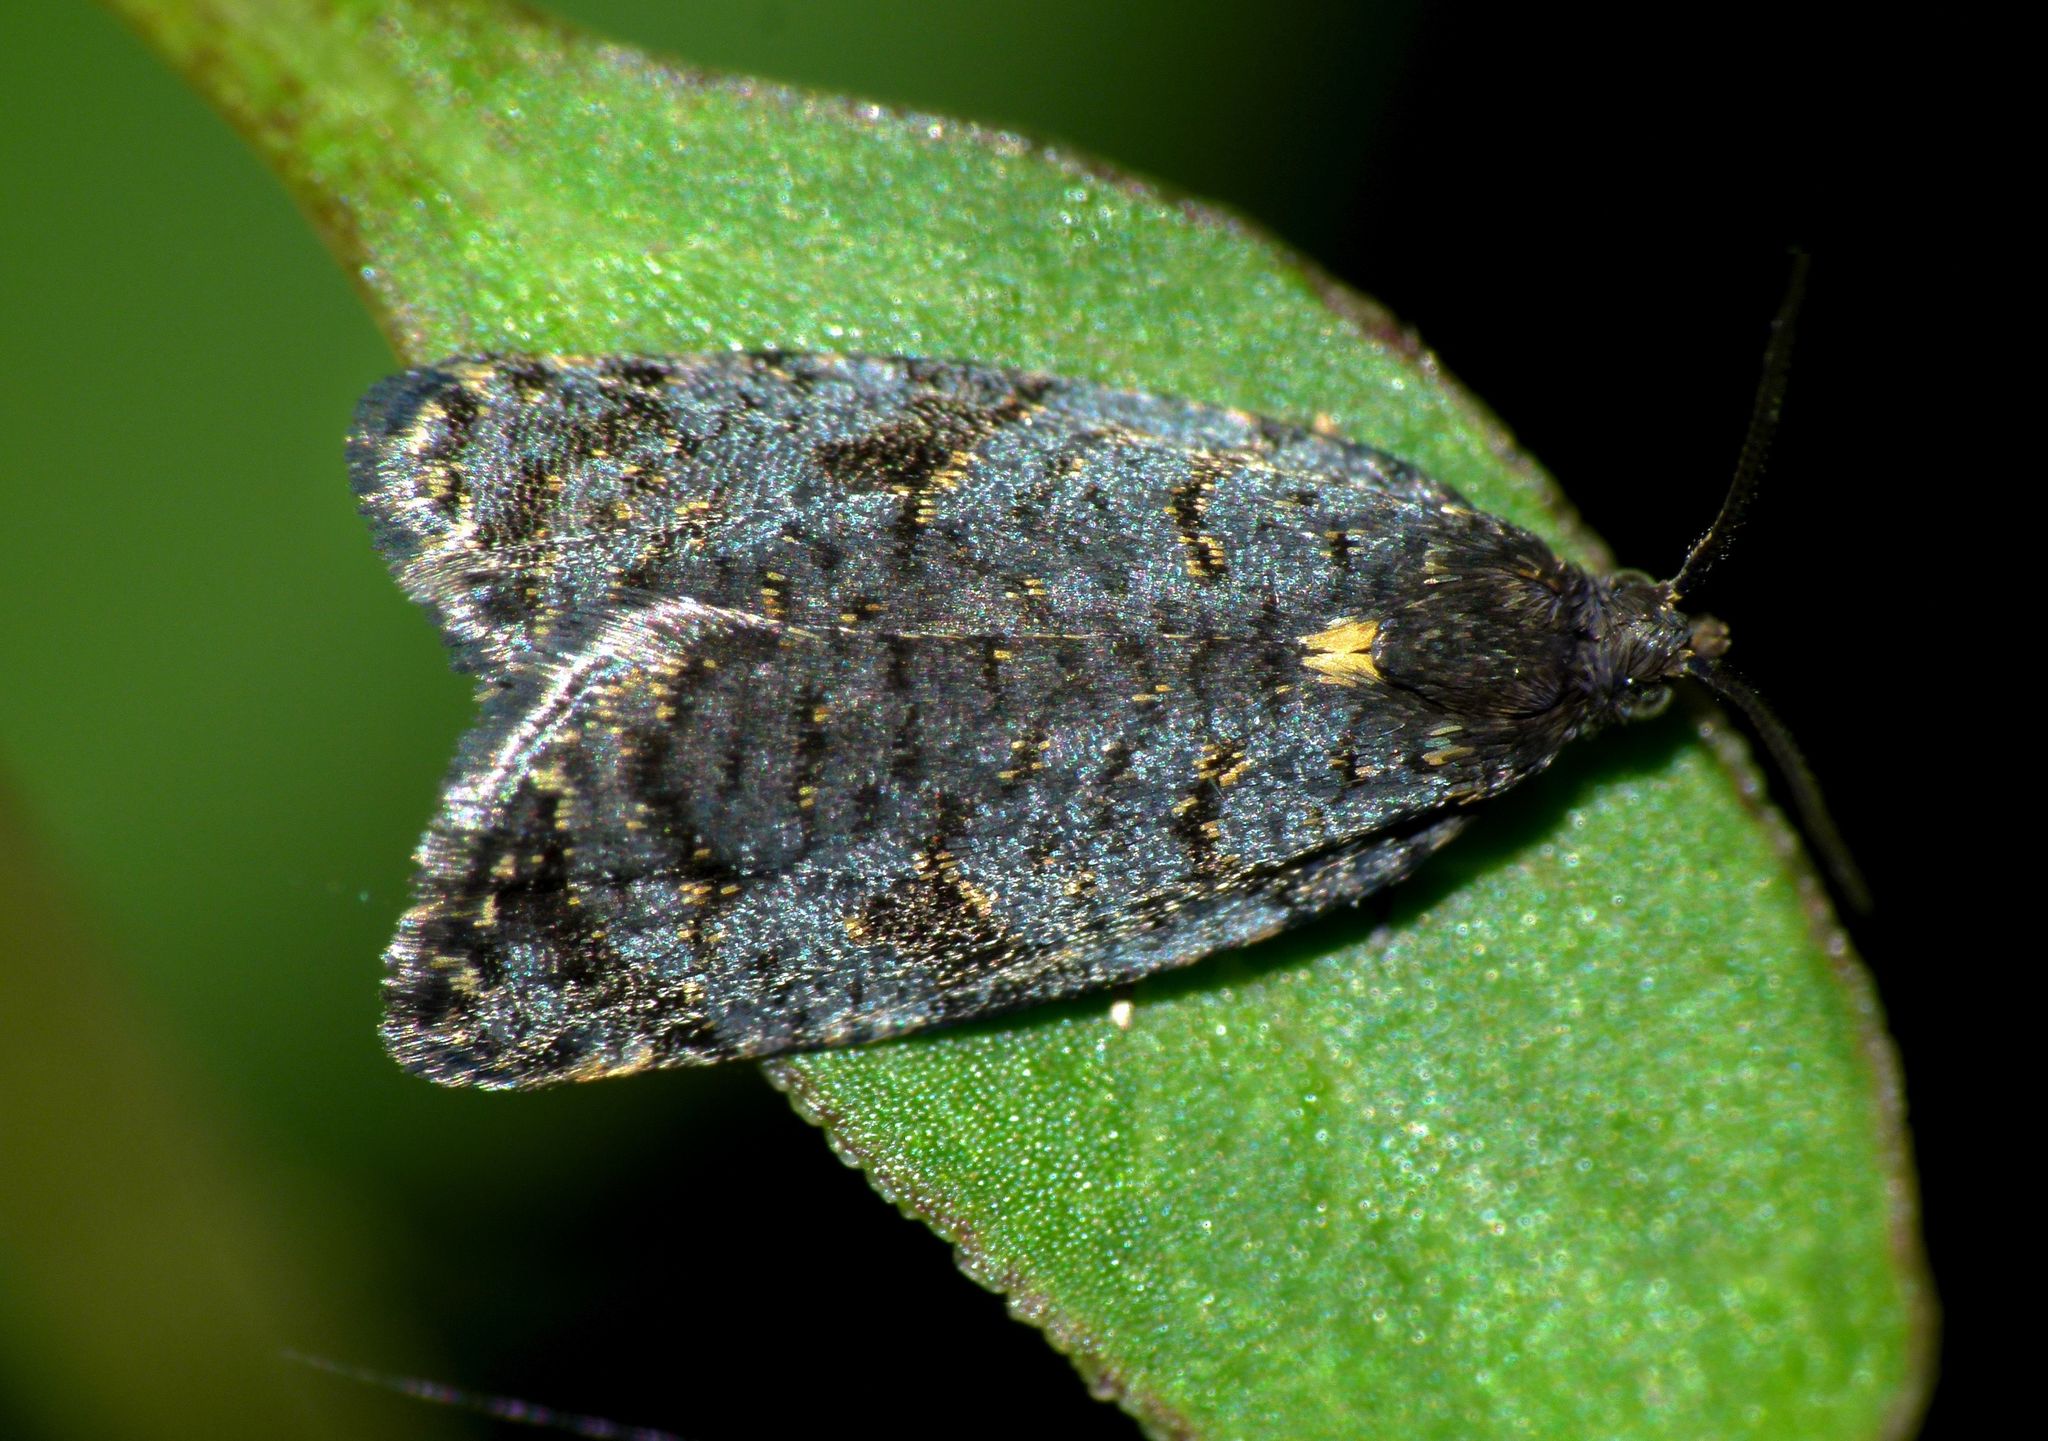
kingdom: Animalia
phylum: Arthropoda
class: Insecta
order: Lepidoptera
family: Tortricidae
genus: Tortrix
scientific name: Tortrix molybditis
